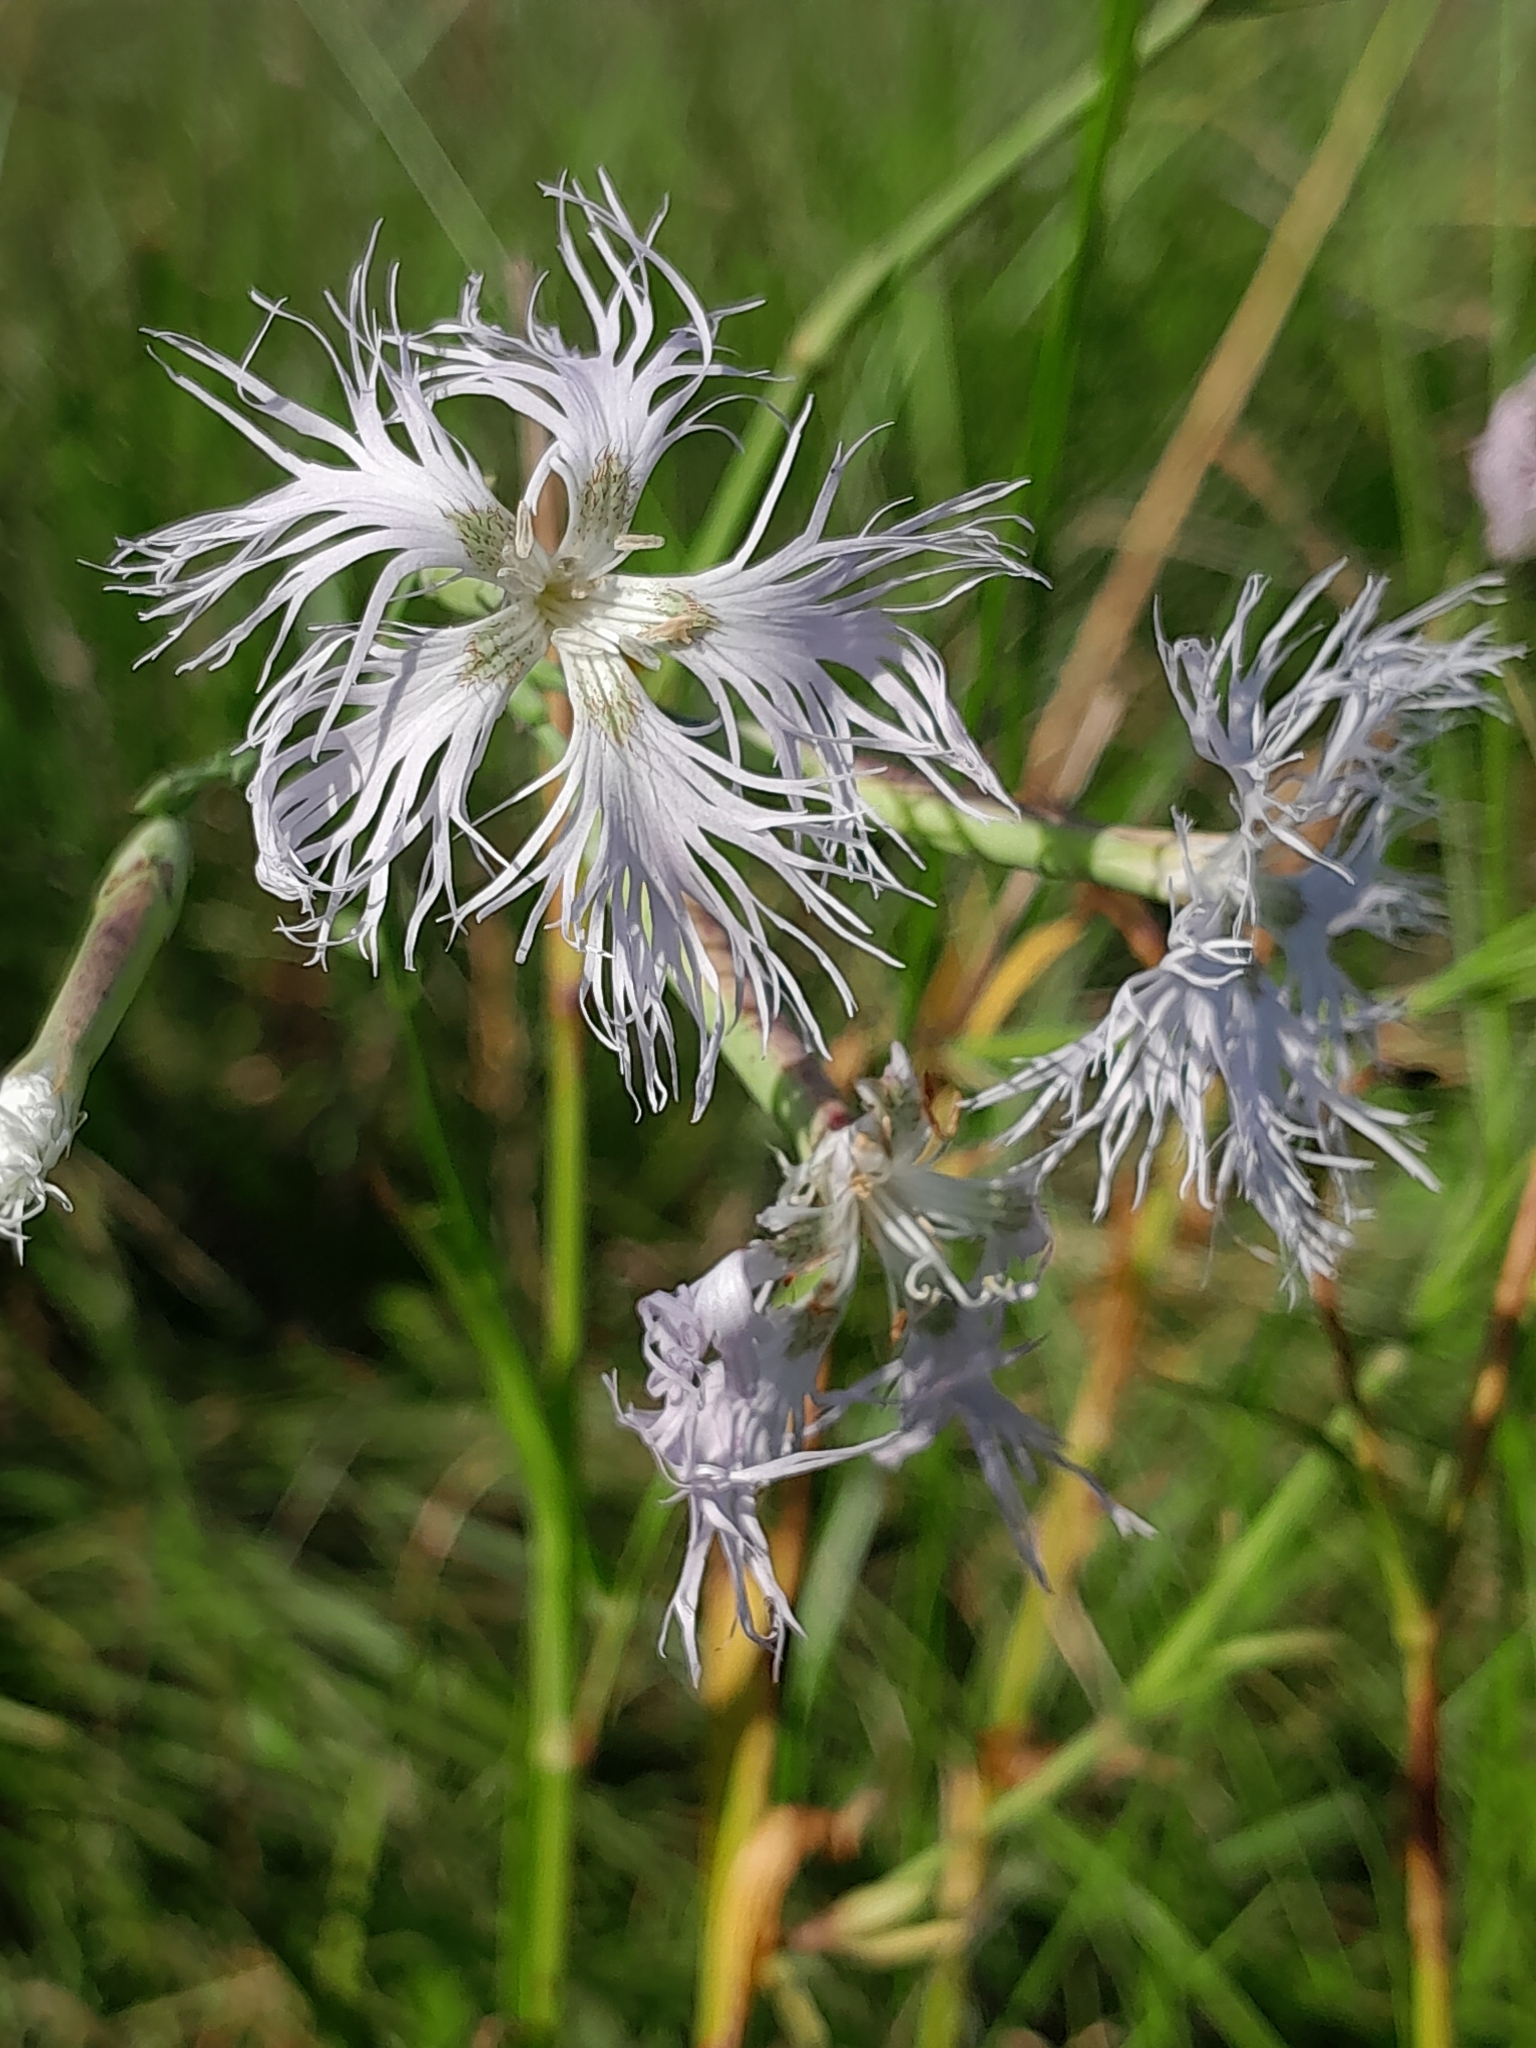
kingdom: Plantae
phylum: Tracheophyta
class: Magnoliopsida
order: Caryophyllales
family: Caryophyllaceae
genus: Dianthus
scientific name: Dianthus superbus
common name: Fringed pink
